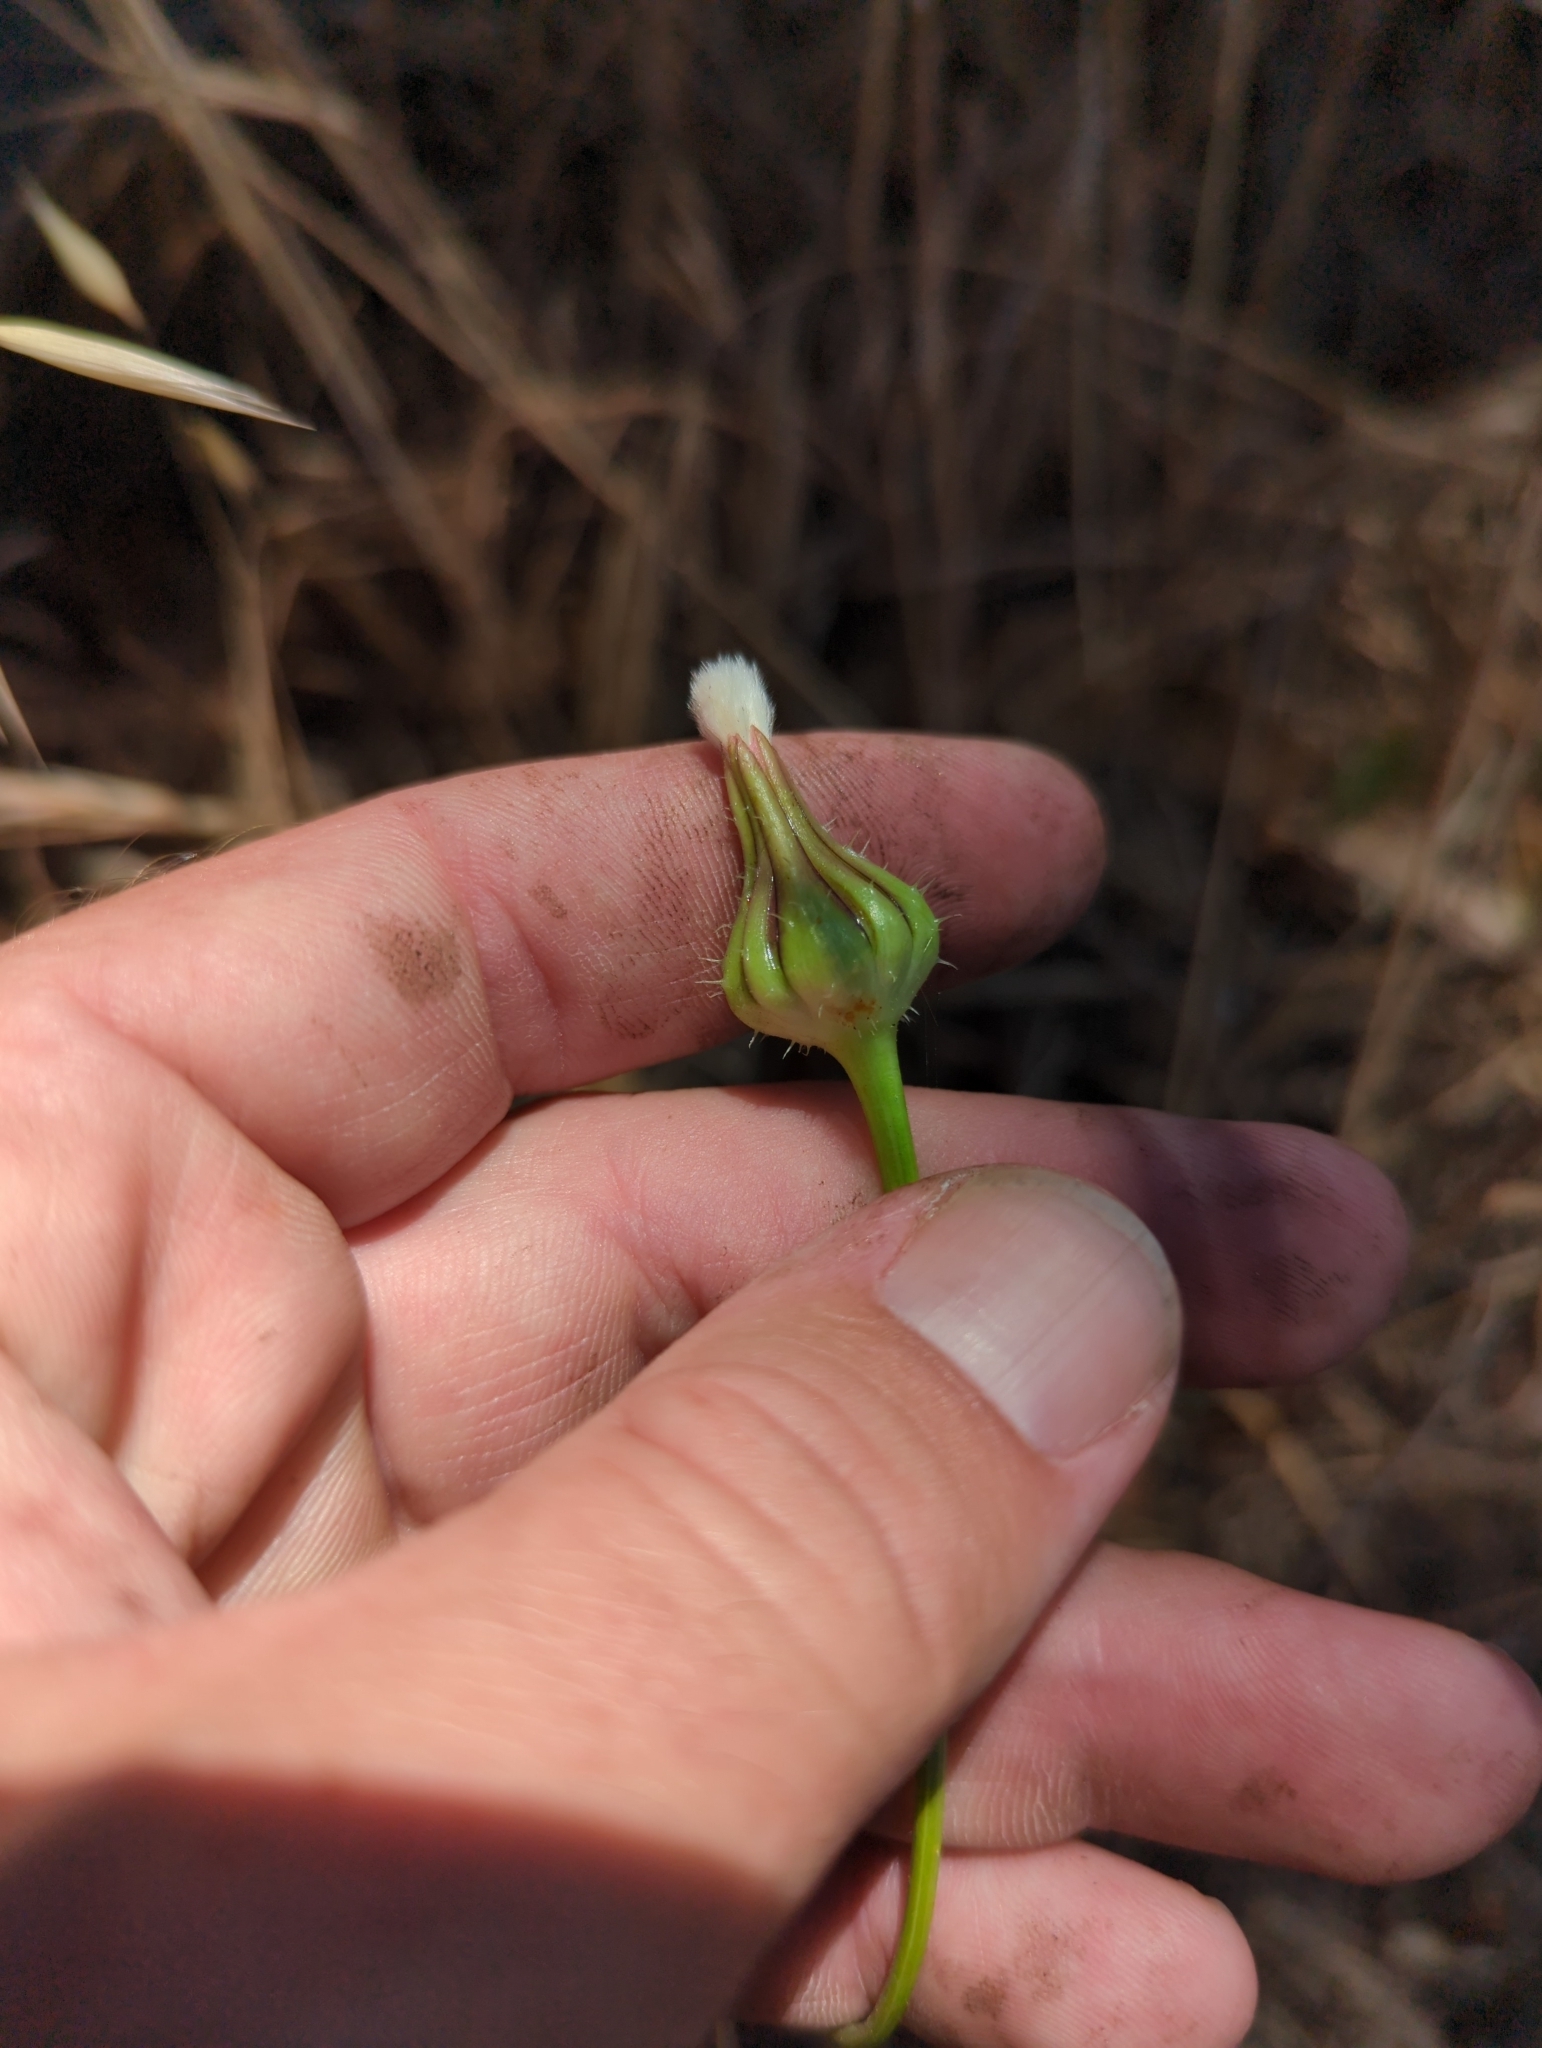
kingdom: Plantae
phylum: Tracheophyta
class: Magnoliopsida
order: Asterales
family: Asteraceae
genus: Urospermum
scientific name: Urospermum picroides
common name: False hawkbit
